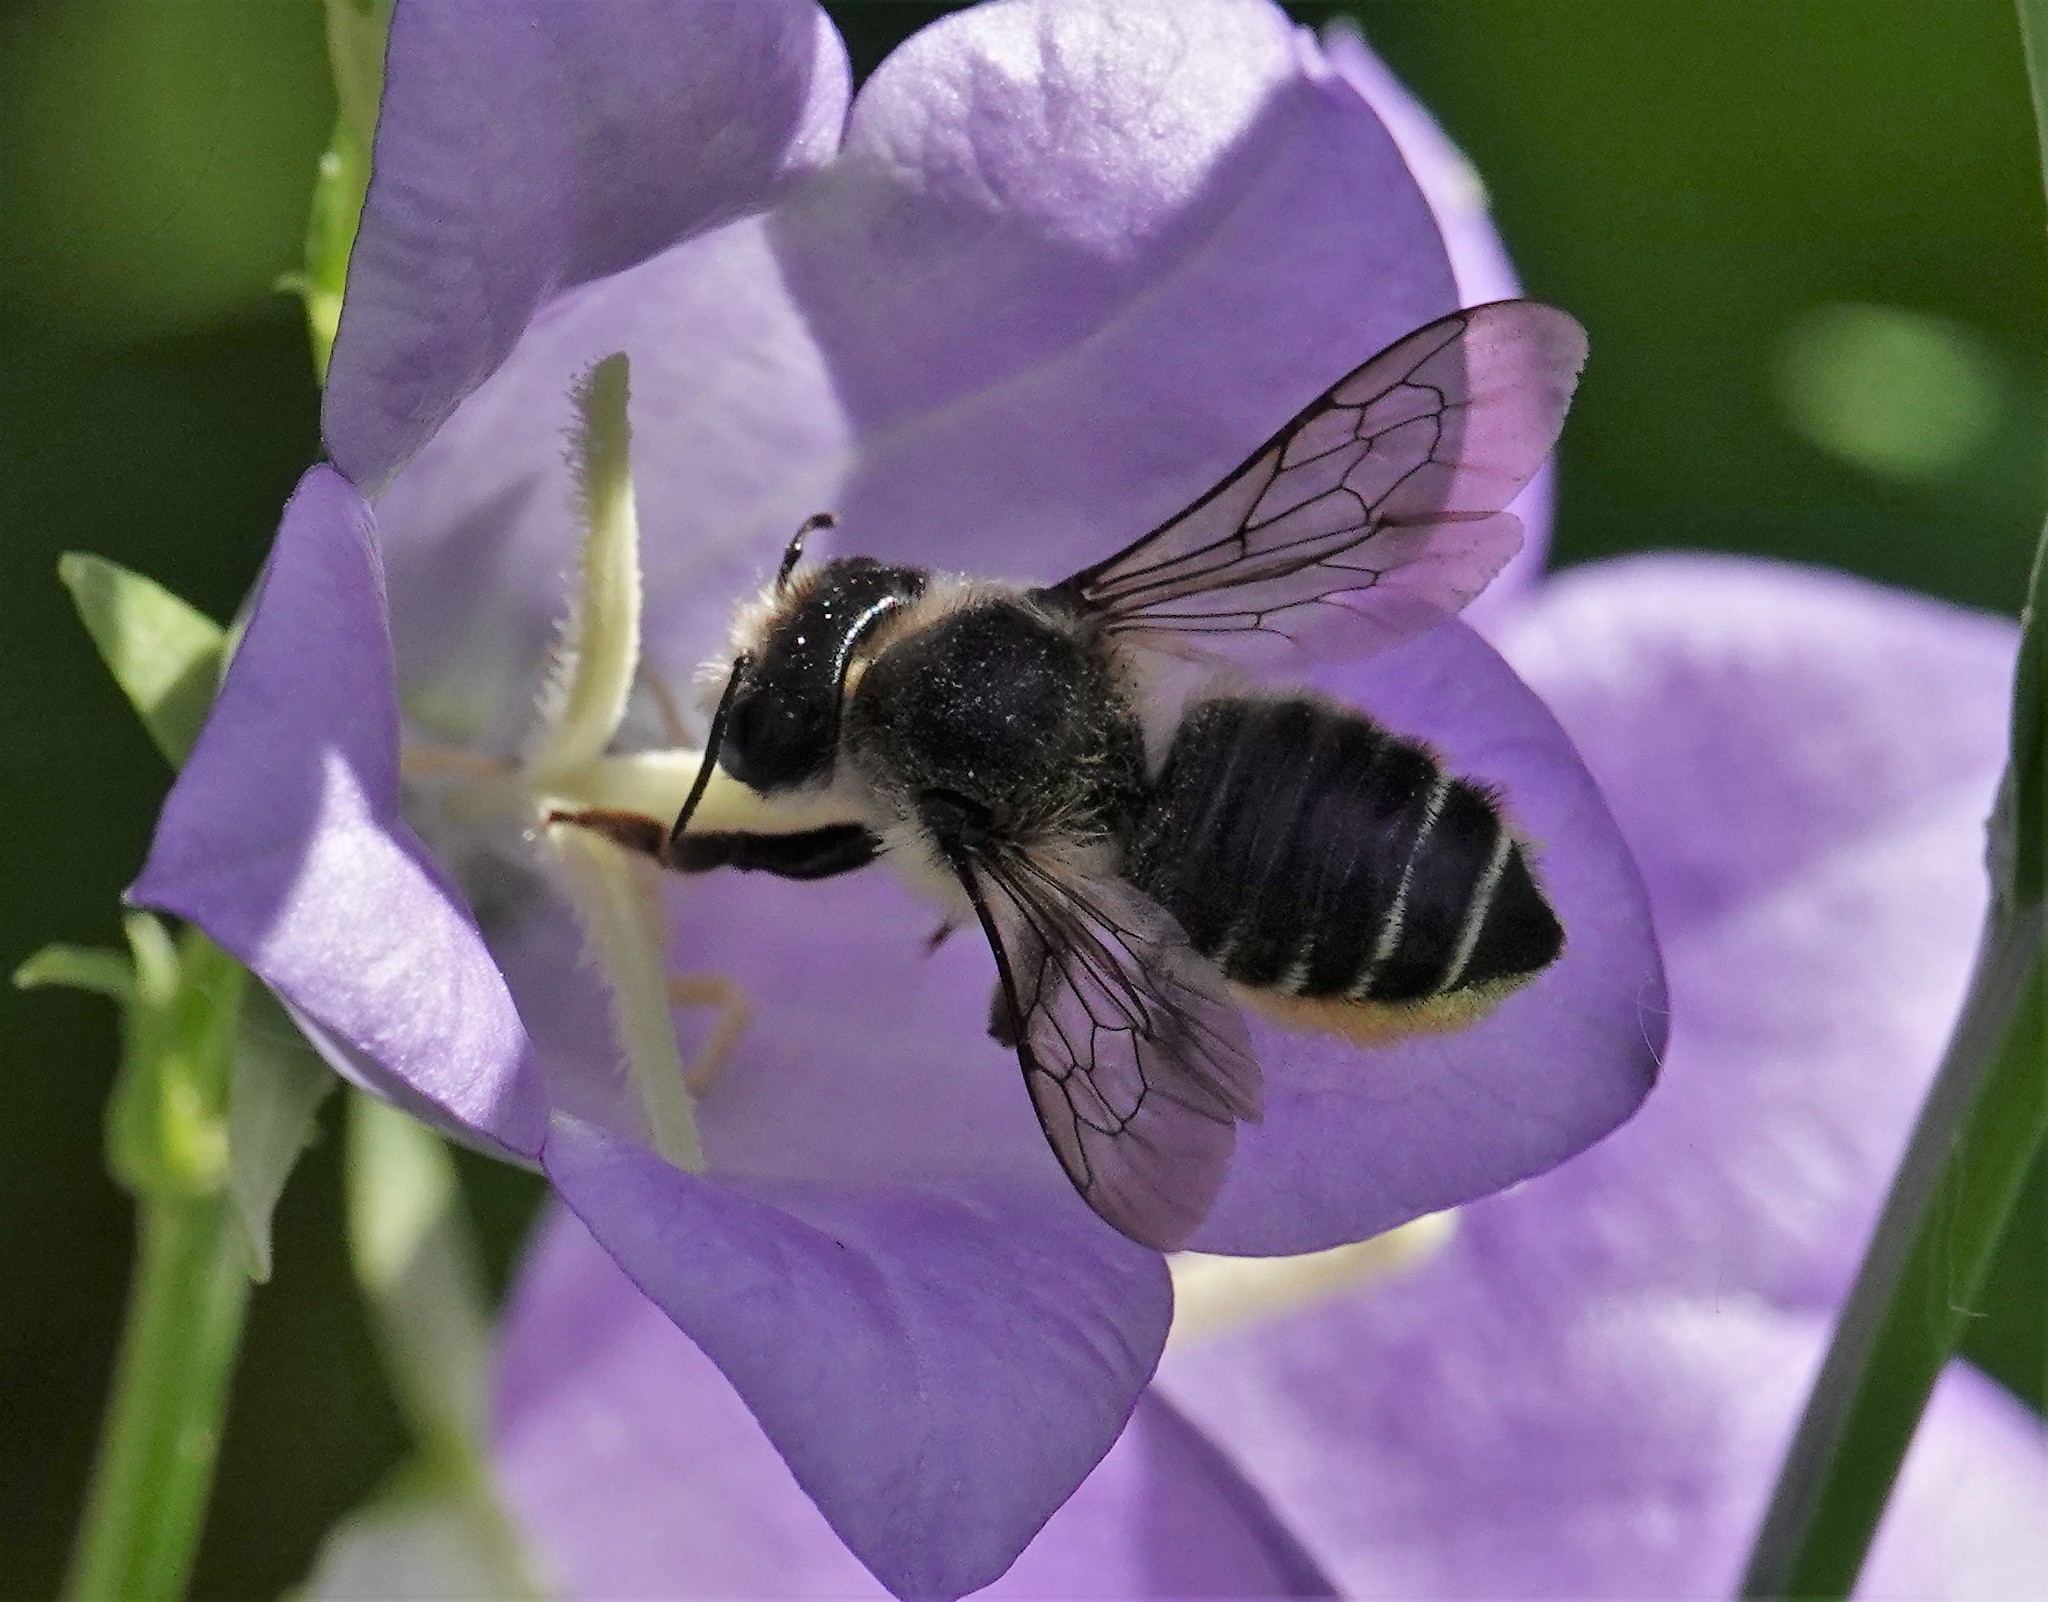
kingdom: Animalia
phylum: Arthropoda
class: Insecta
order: Hymenoptera
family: Megachilidae
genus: Megachile
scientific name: Megachile frigida
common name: Frigid leafcutter
